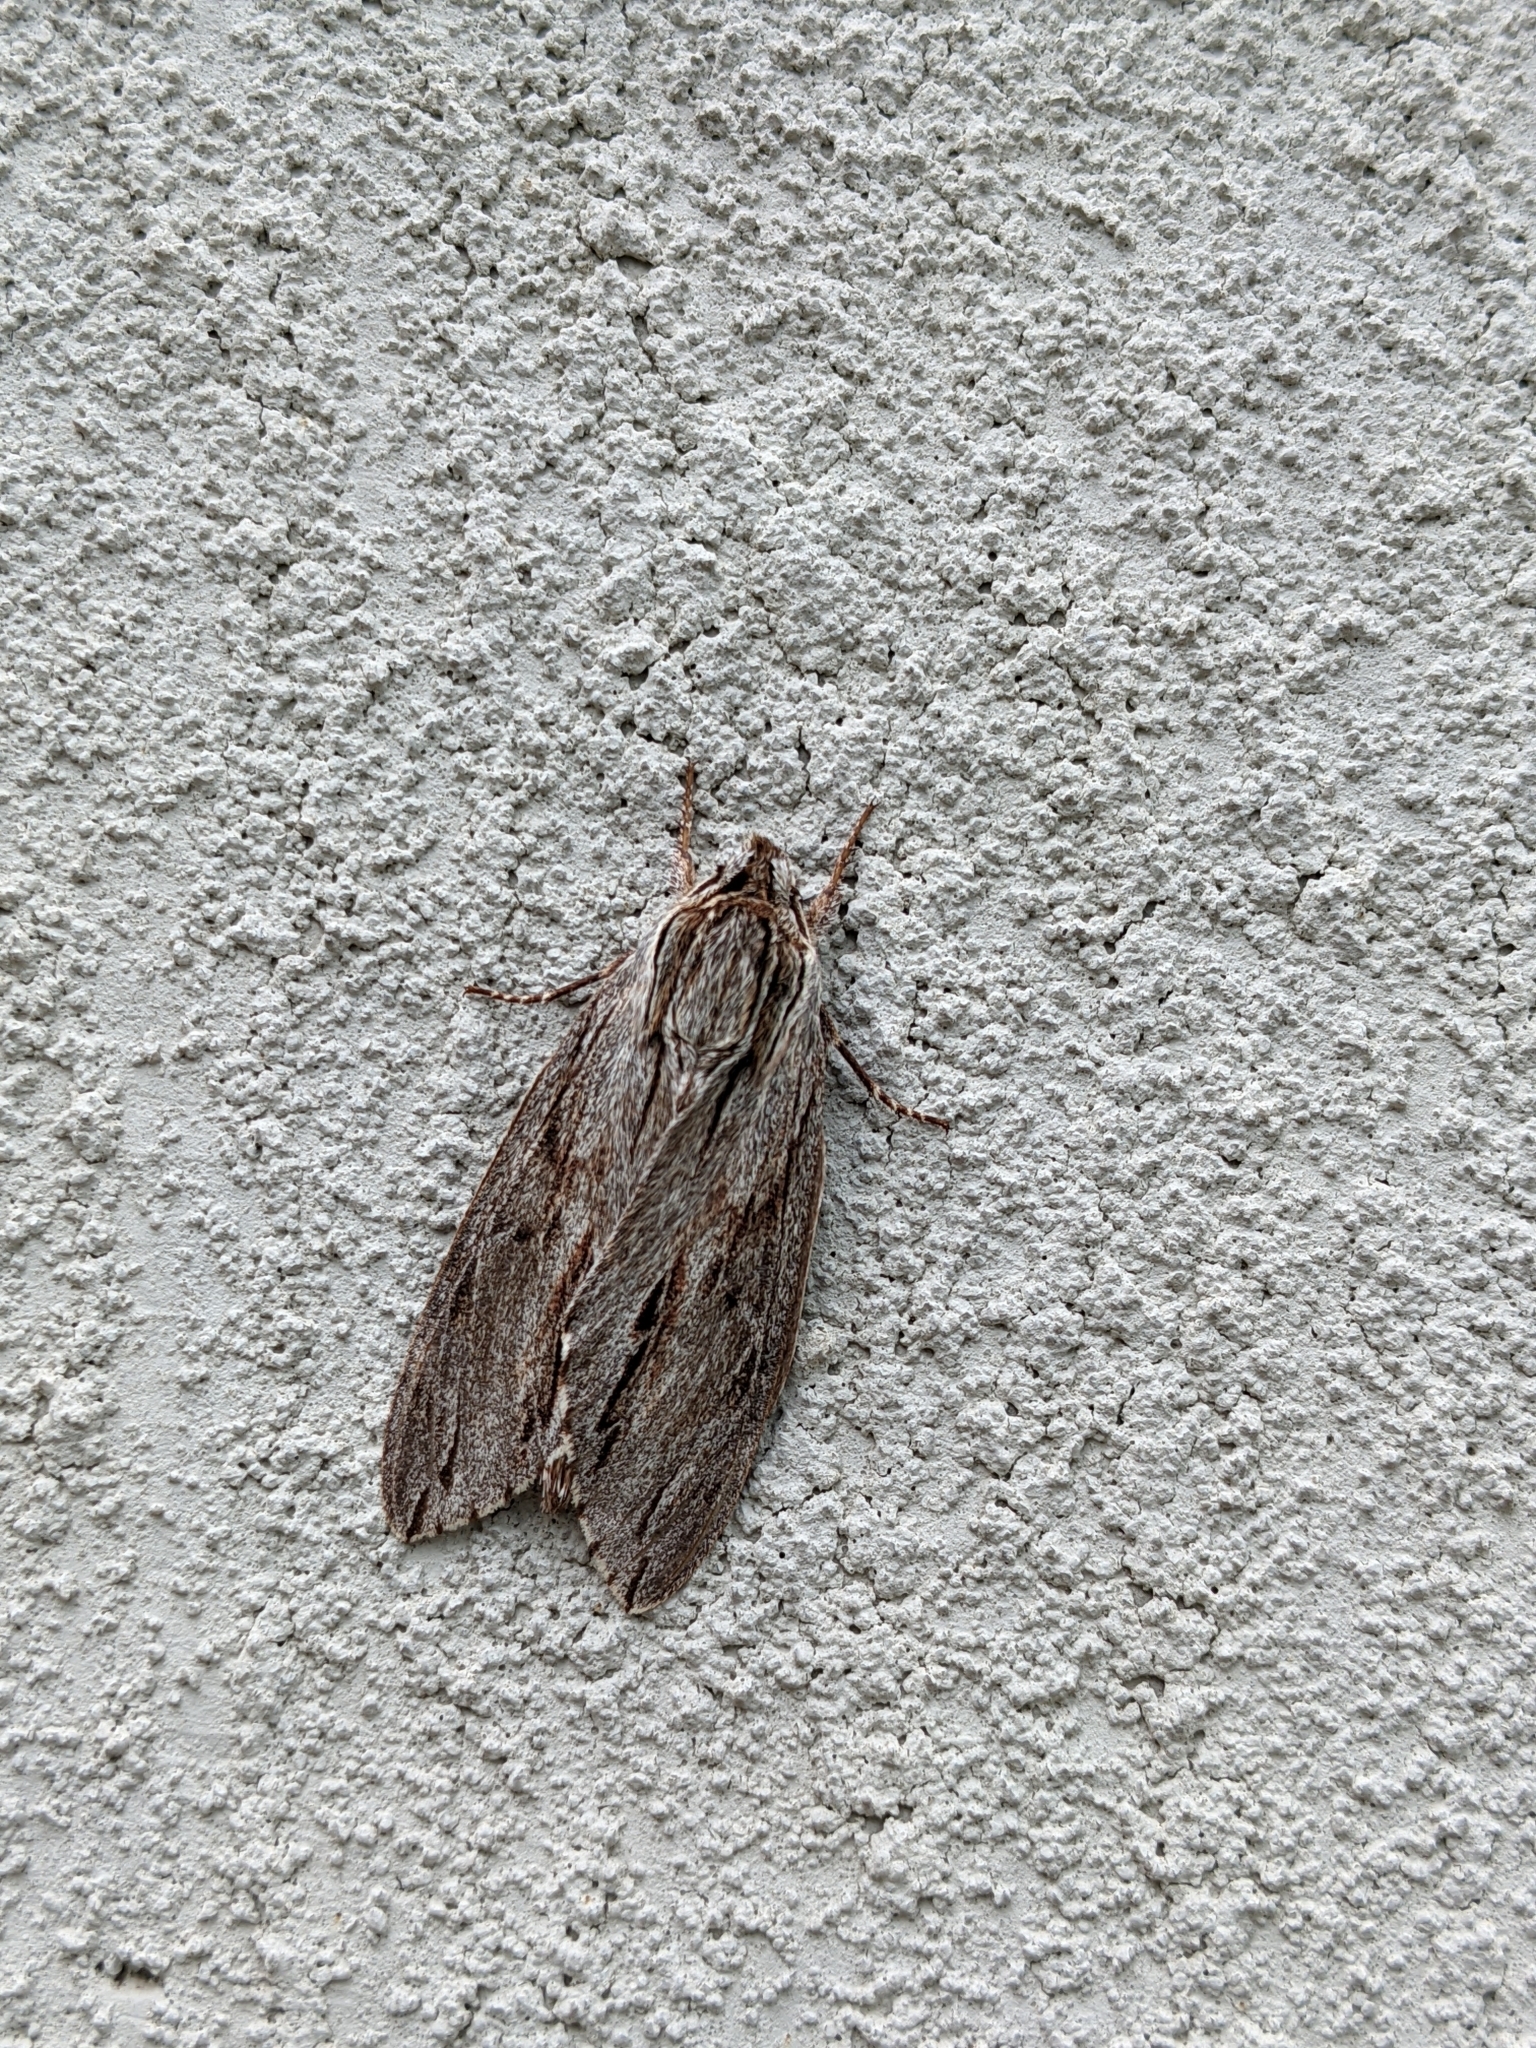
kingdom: Animalia
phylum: Arthropoda
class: Insecta
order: Lepidoptera
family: Sphingidae
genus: Isoparce
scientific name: Isoparce cupressi
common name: Cypress sphinx
